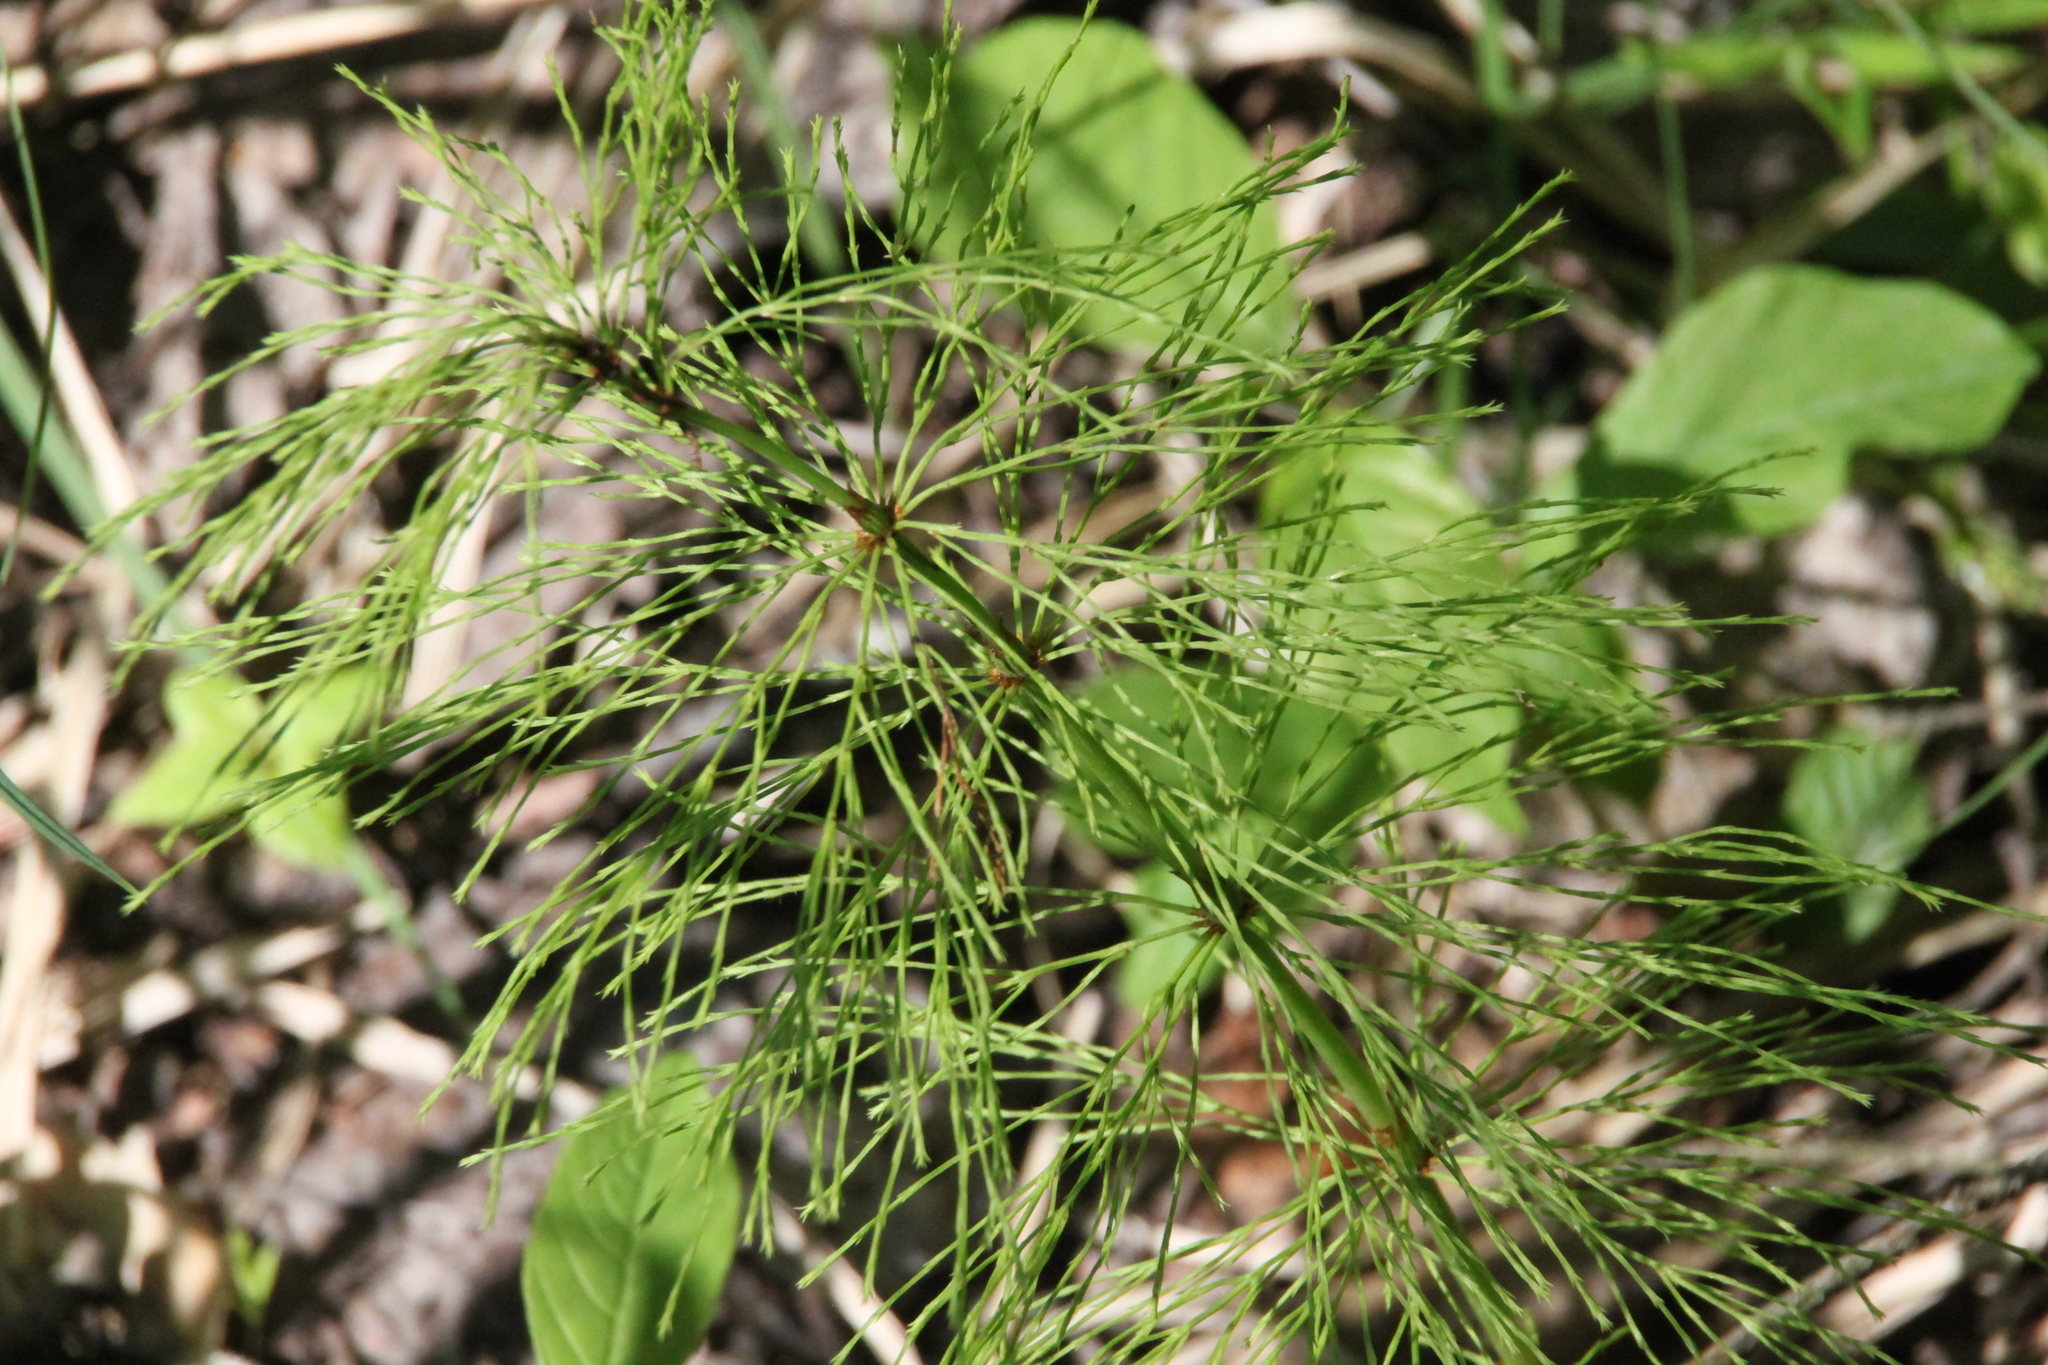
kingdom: Plantae
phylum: Tracheophyta
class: Polypodiopsida
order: Equisetales
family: Equisetaceae
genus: Equisetum
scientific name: Equisetum sylvaticum
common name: Wood horsetail
